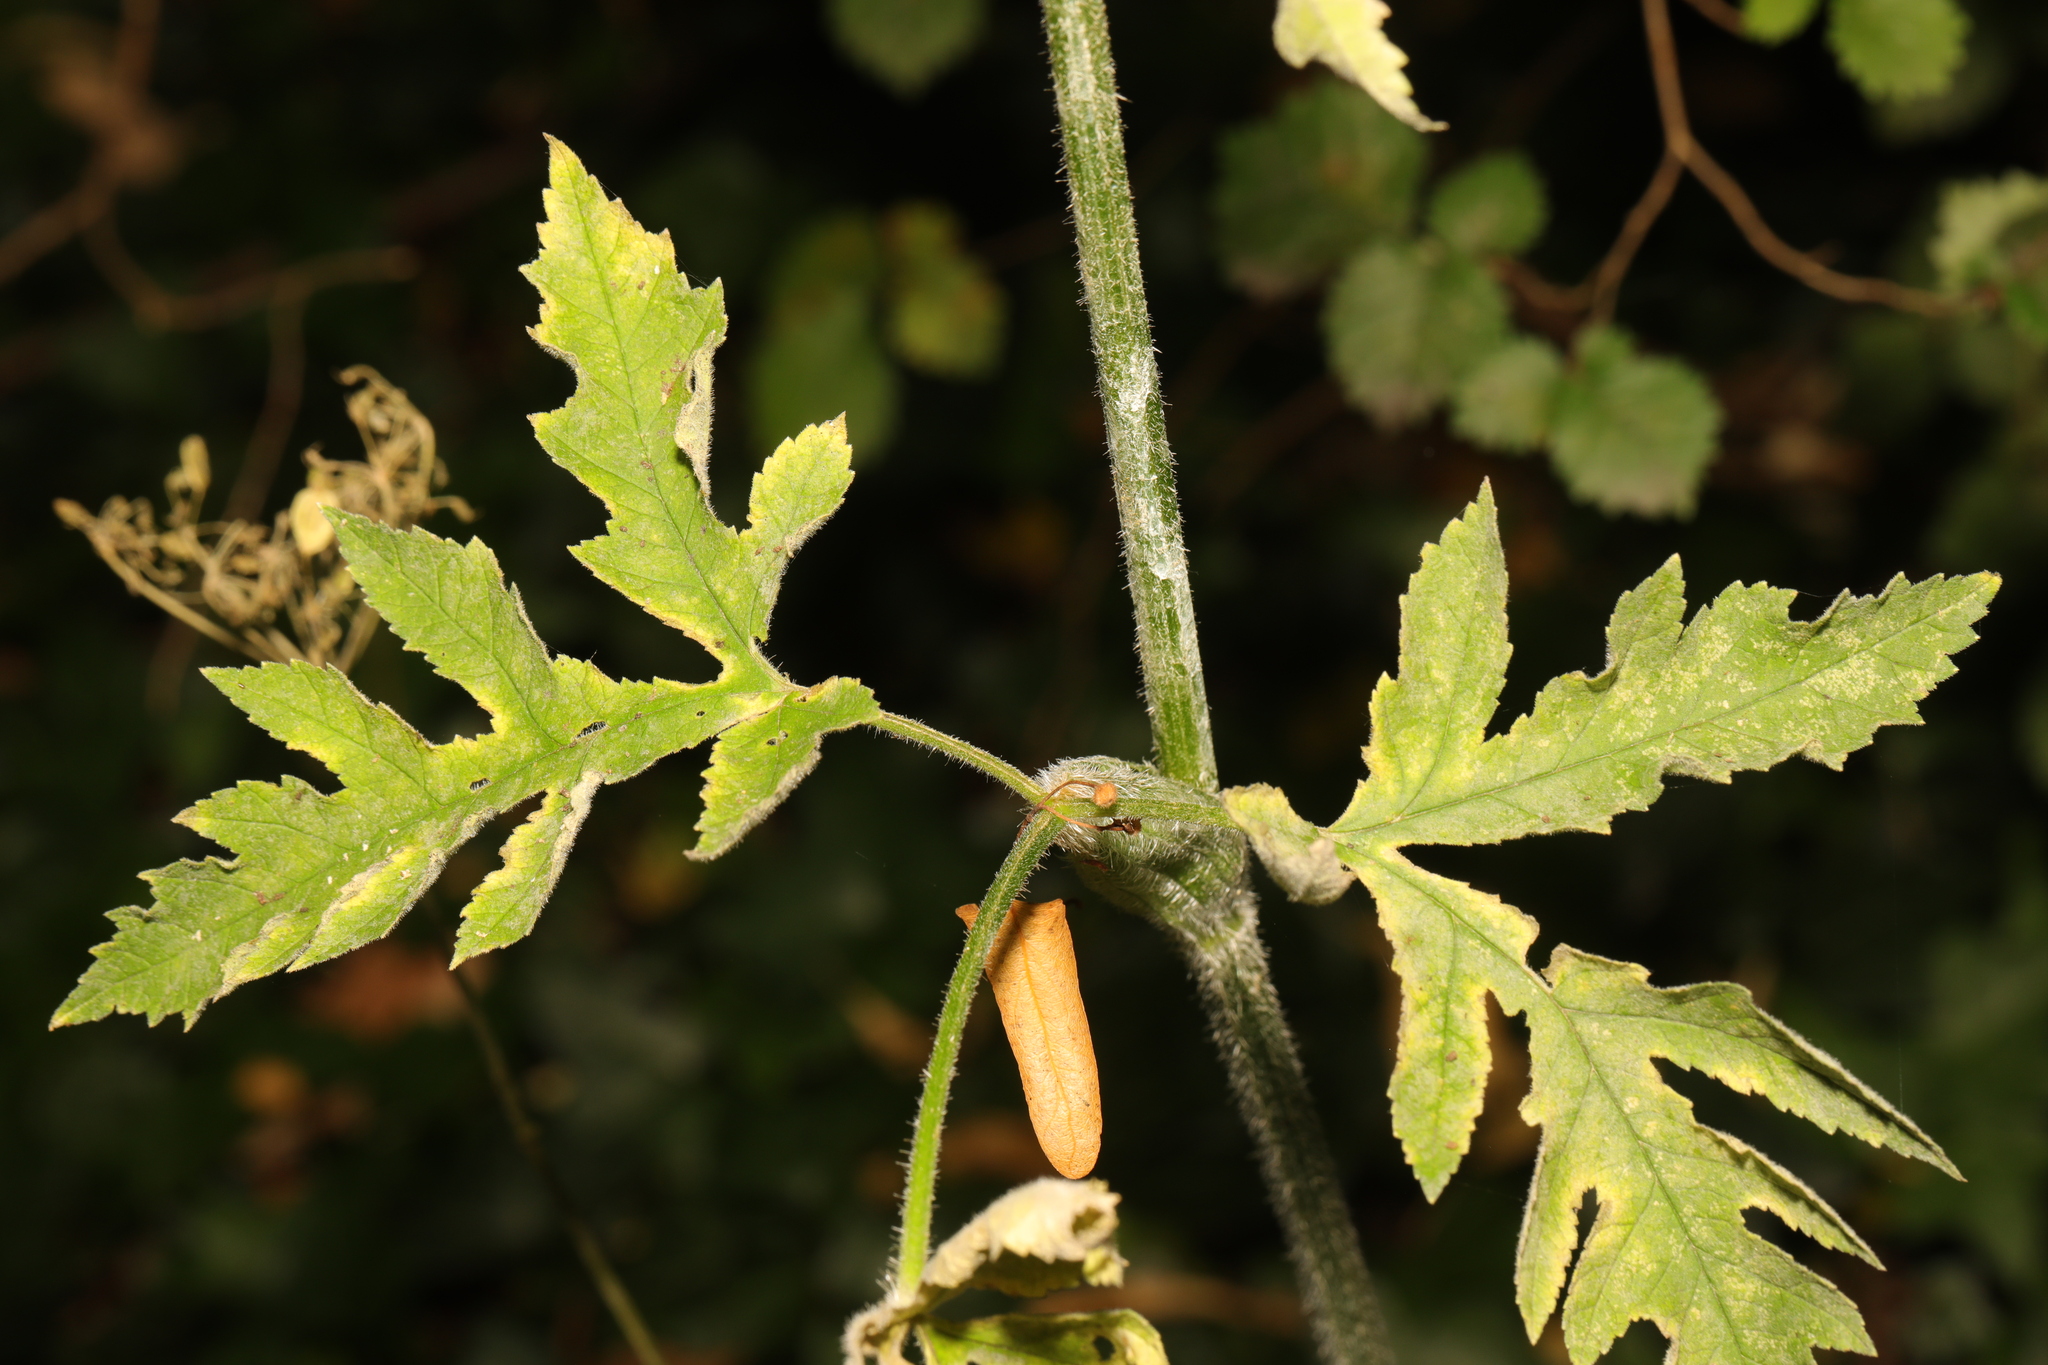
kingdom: Plantae
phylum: Tracheophyta
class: Magnoliopsida
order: Apiales
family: Apiaceae
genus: Heracleum
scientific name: Heracleum sphondylium
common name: Hogweed
